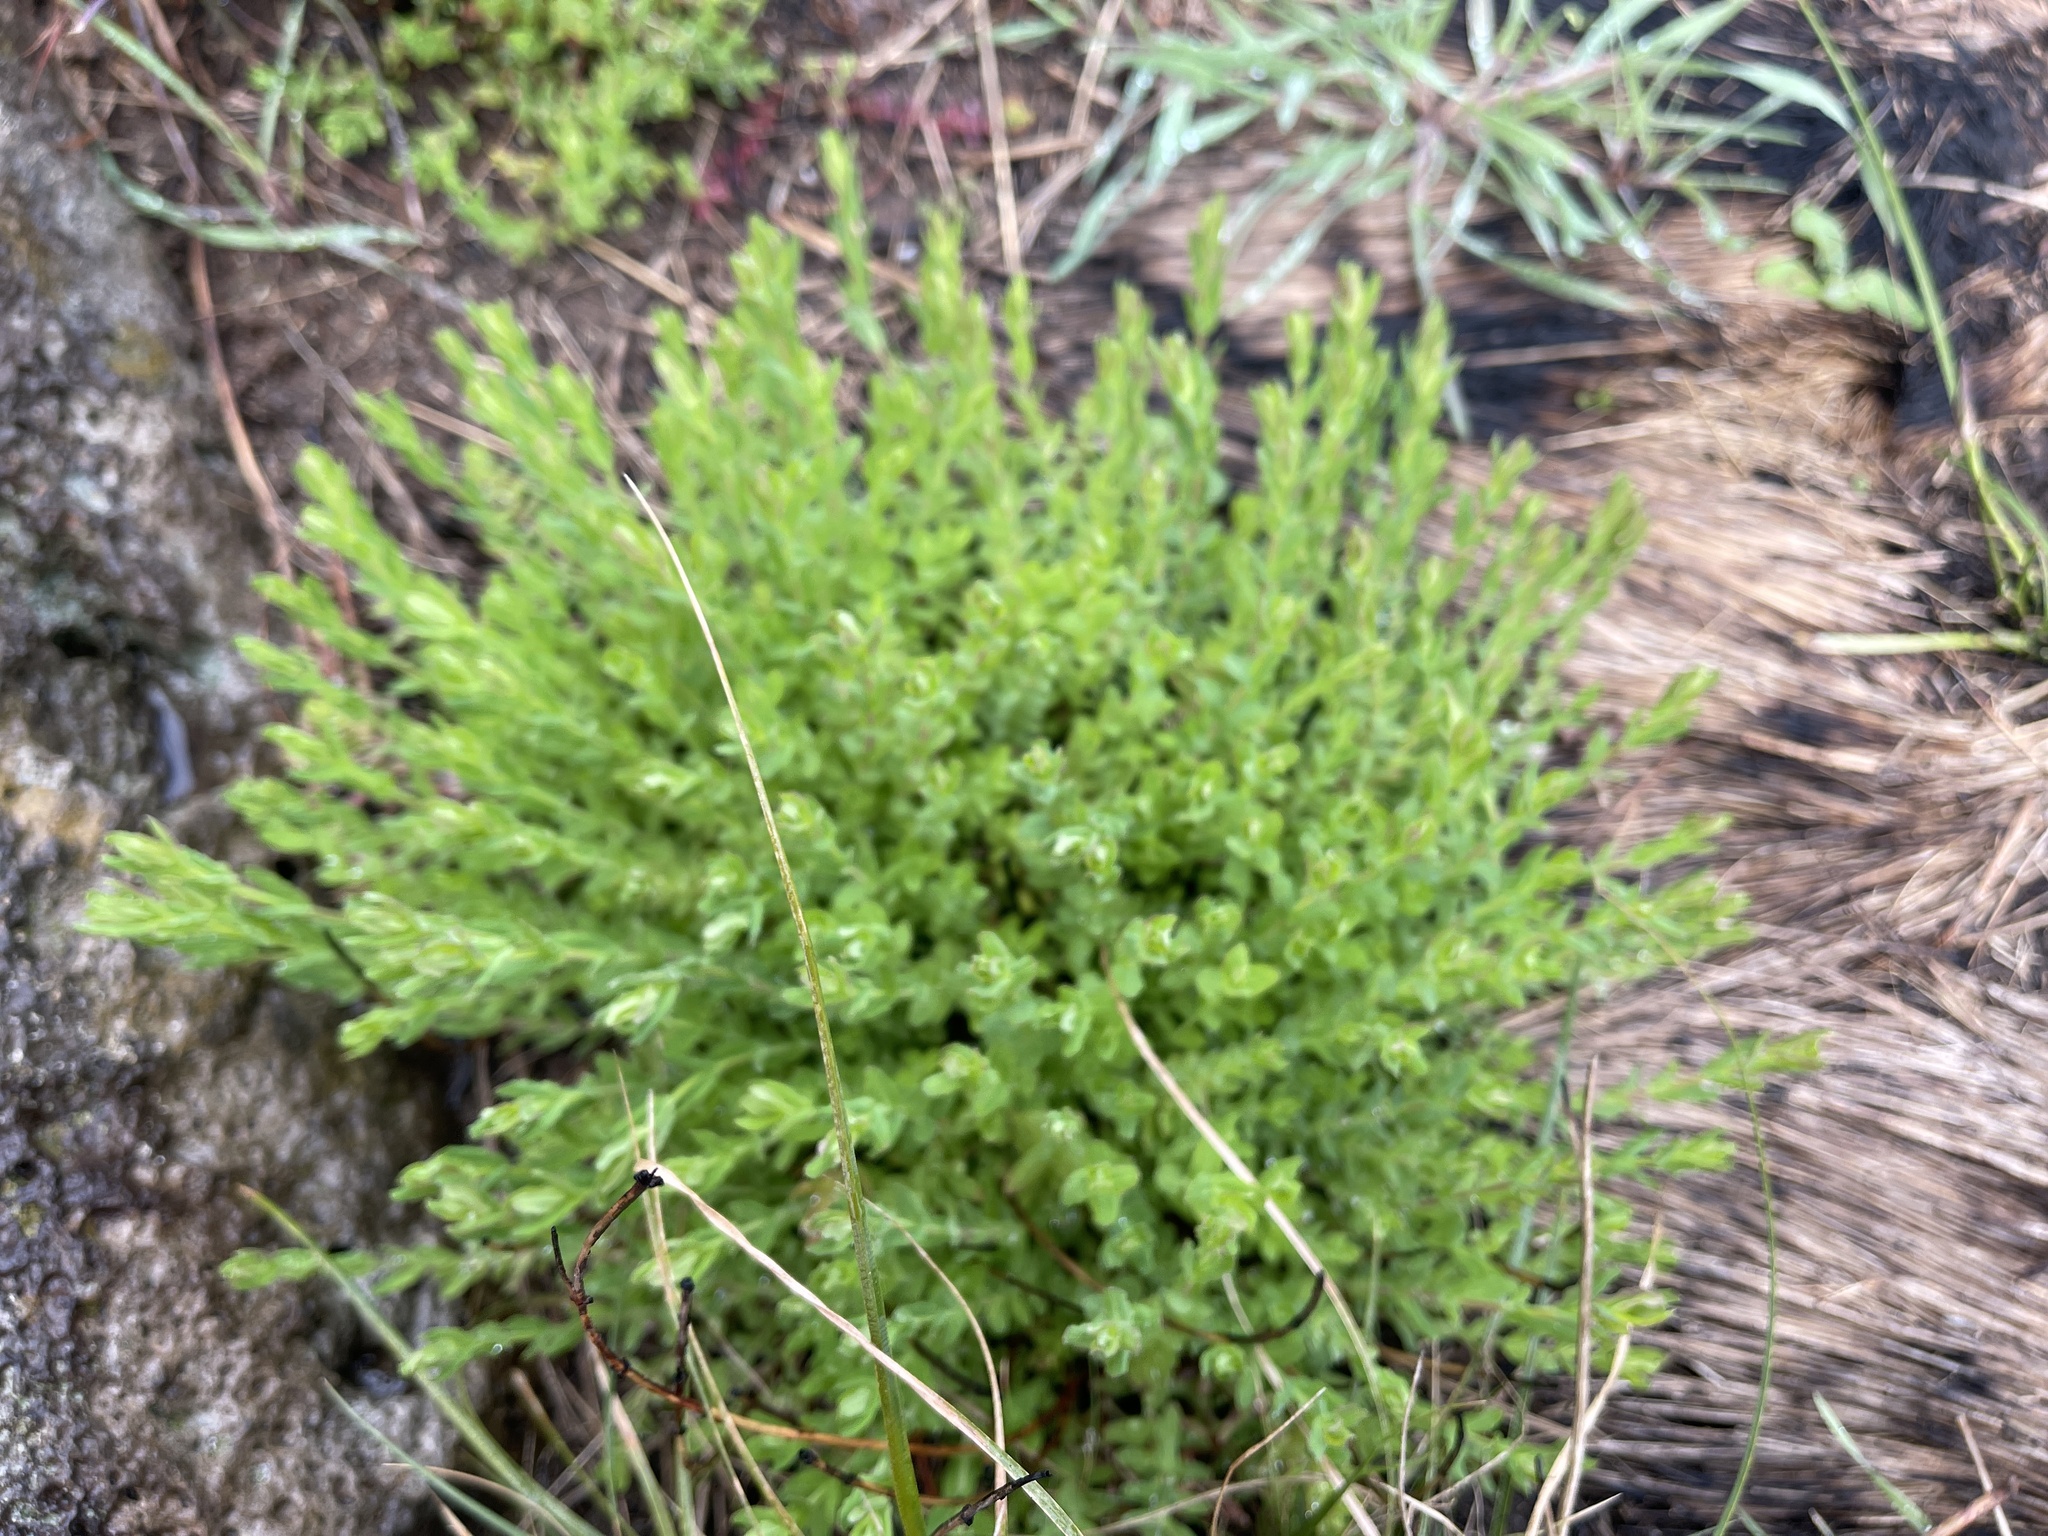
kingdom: Plantae
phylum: Tracheophyta
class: Magnoliopsida
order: Malpighiales
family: Hypericaceae
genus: Hypericum
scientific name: Hypericum gramineum
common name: Grassy st. johnswort
